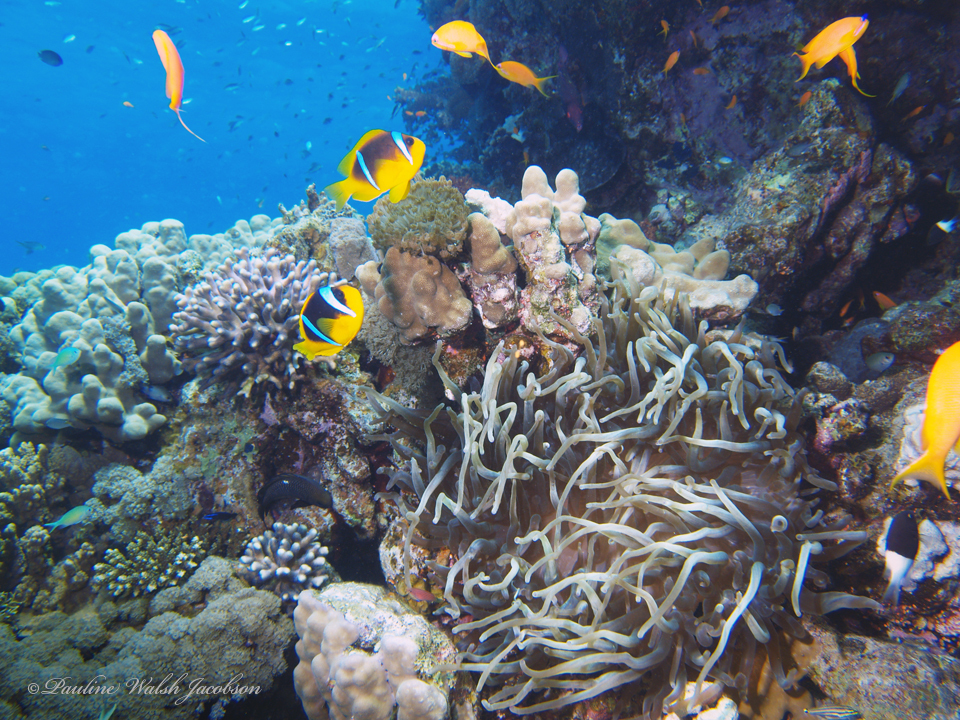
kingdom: Animalia
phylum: Chordata
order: Perciformes
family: Pomacentridae
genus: Amphiprion
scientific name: Amphiprion bicinctus
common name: Two-banded anemonefish
